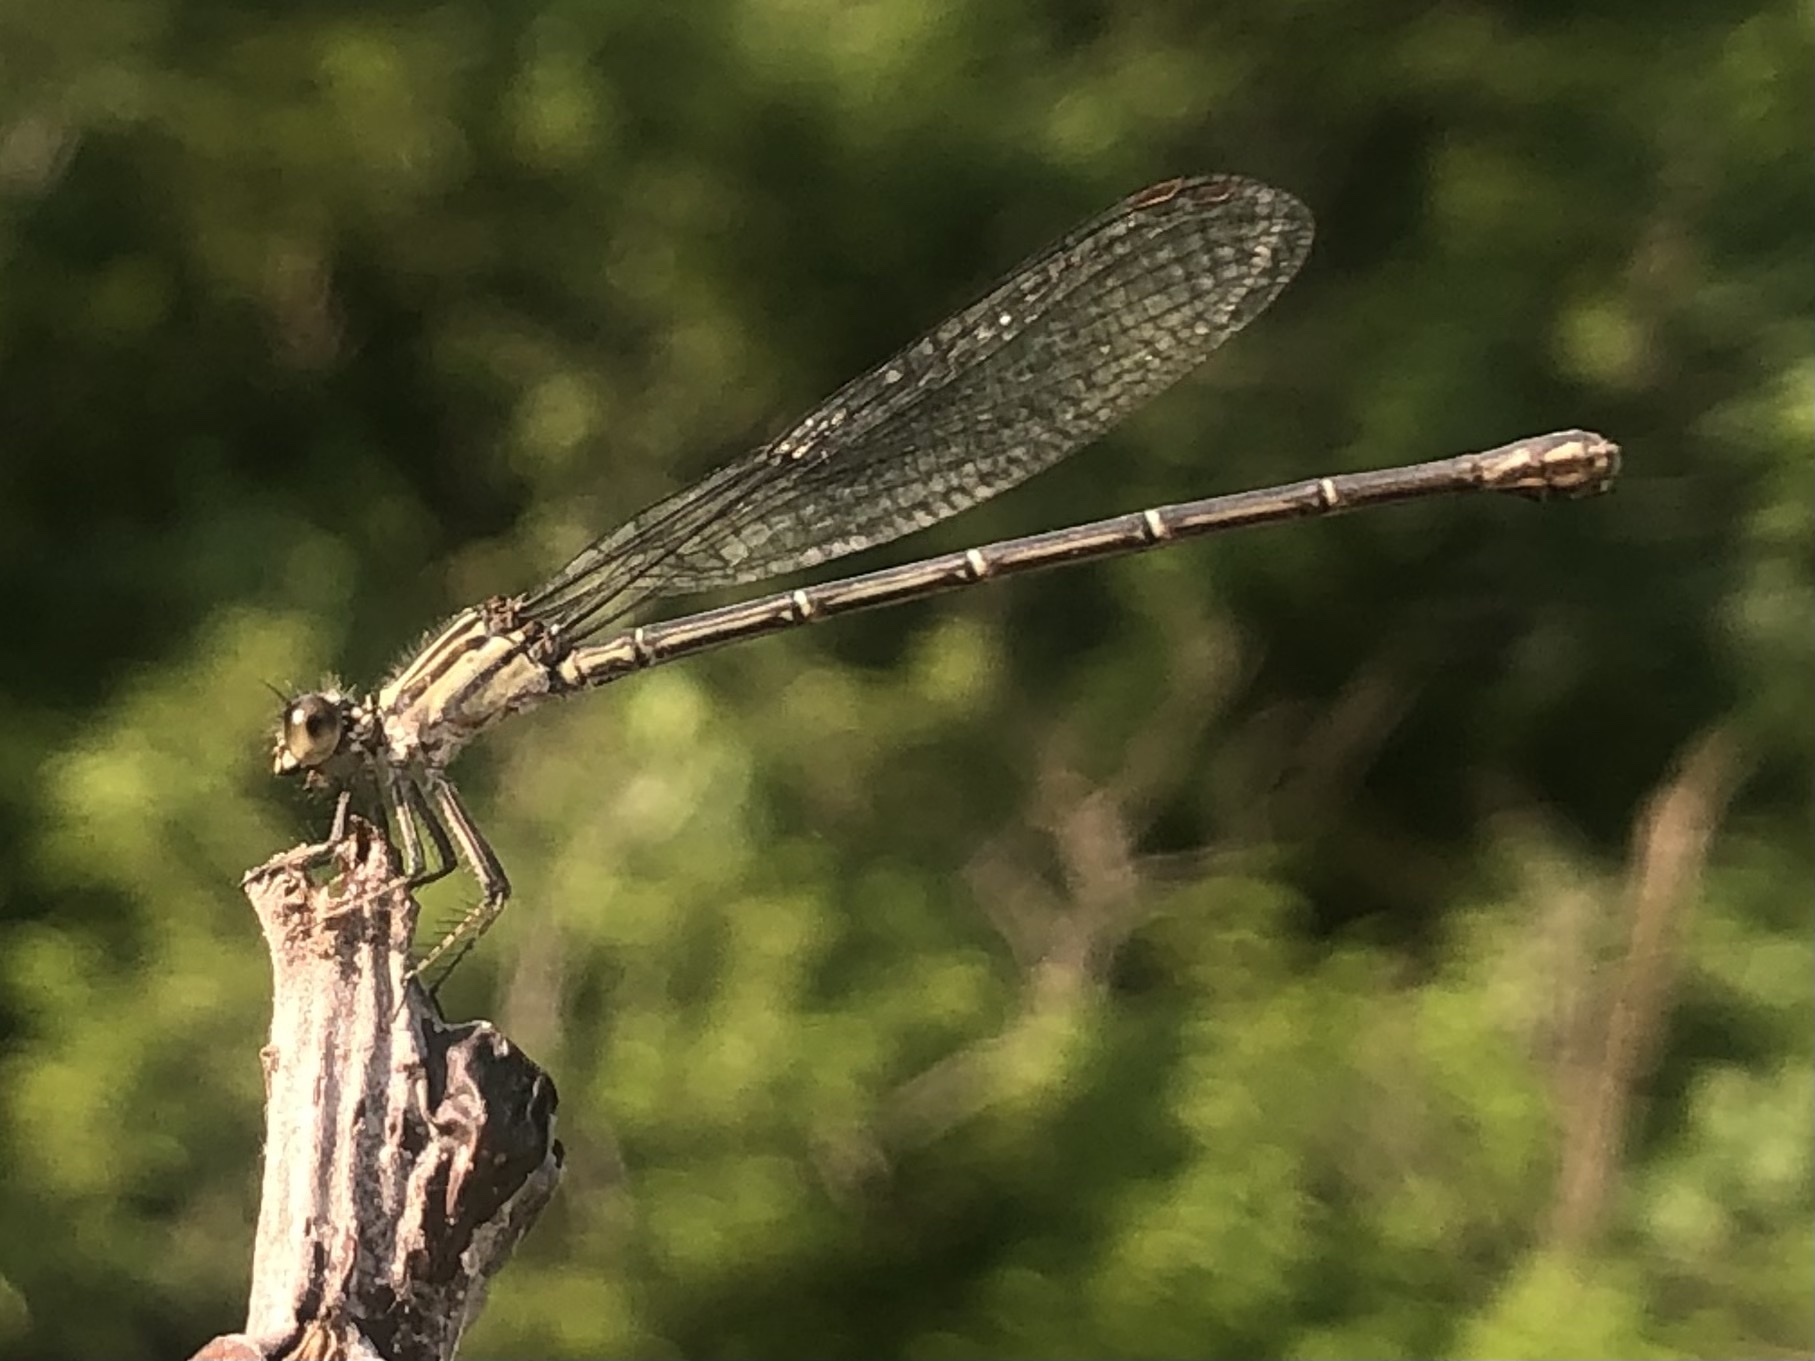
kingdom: Animalia
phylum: Arthropoda
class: Insecta
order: Odonata
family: Coenagrionidae
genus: Argia
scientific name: Argia translata
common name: Dusky dancer
